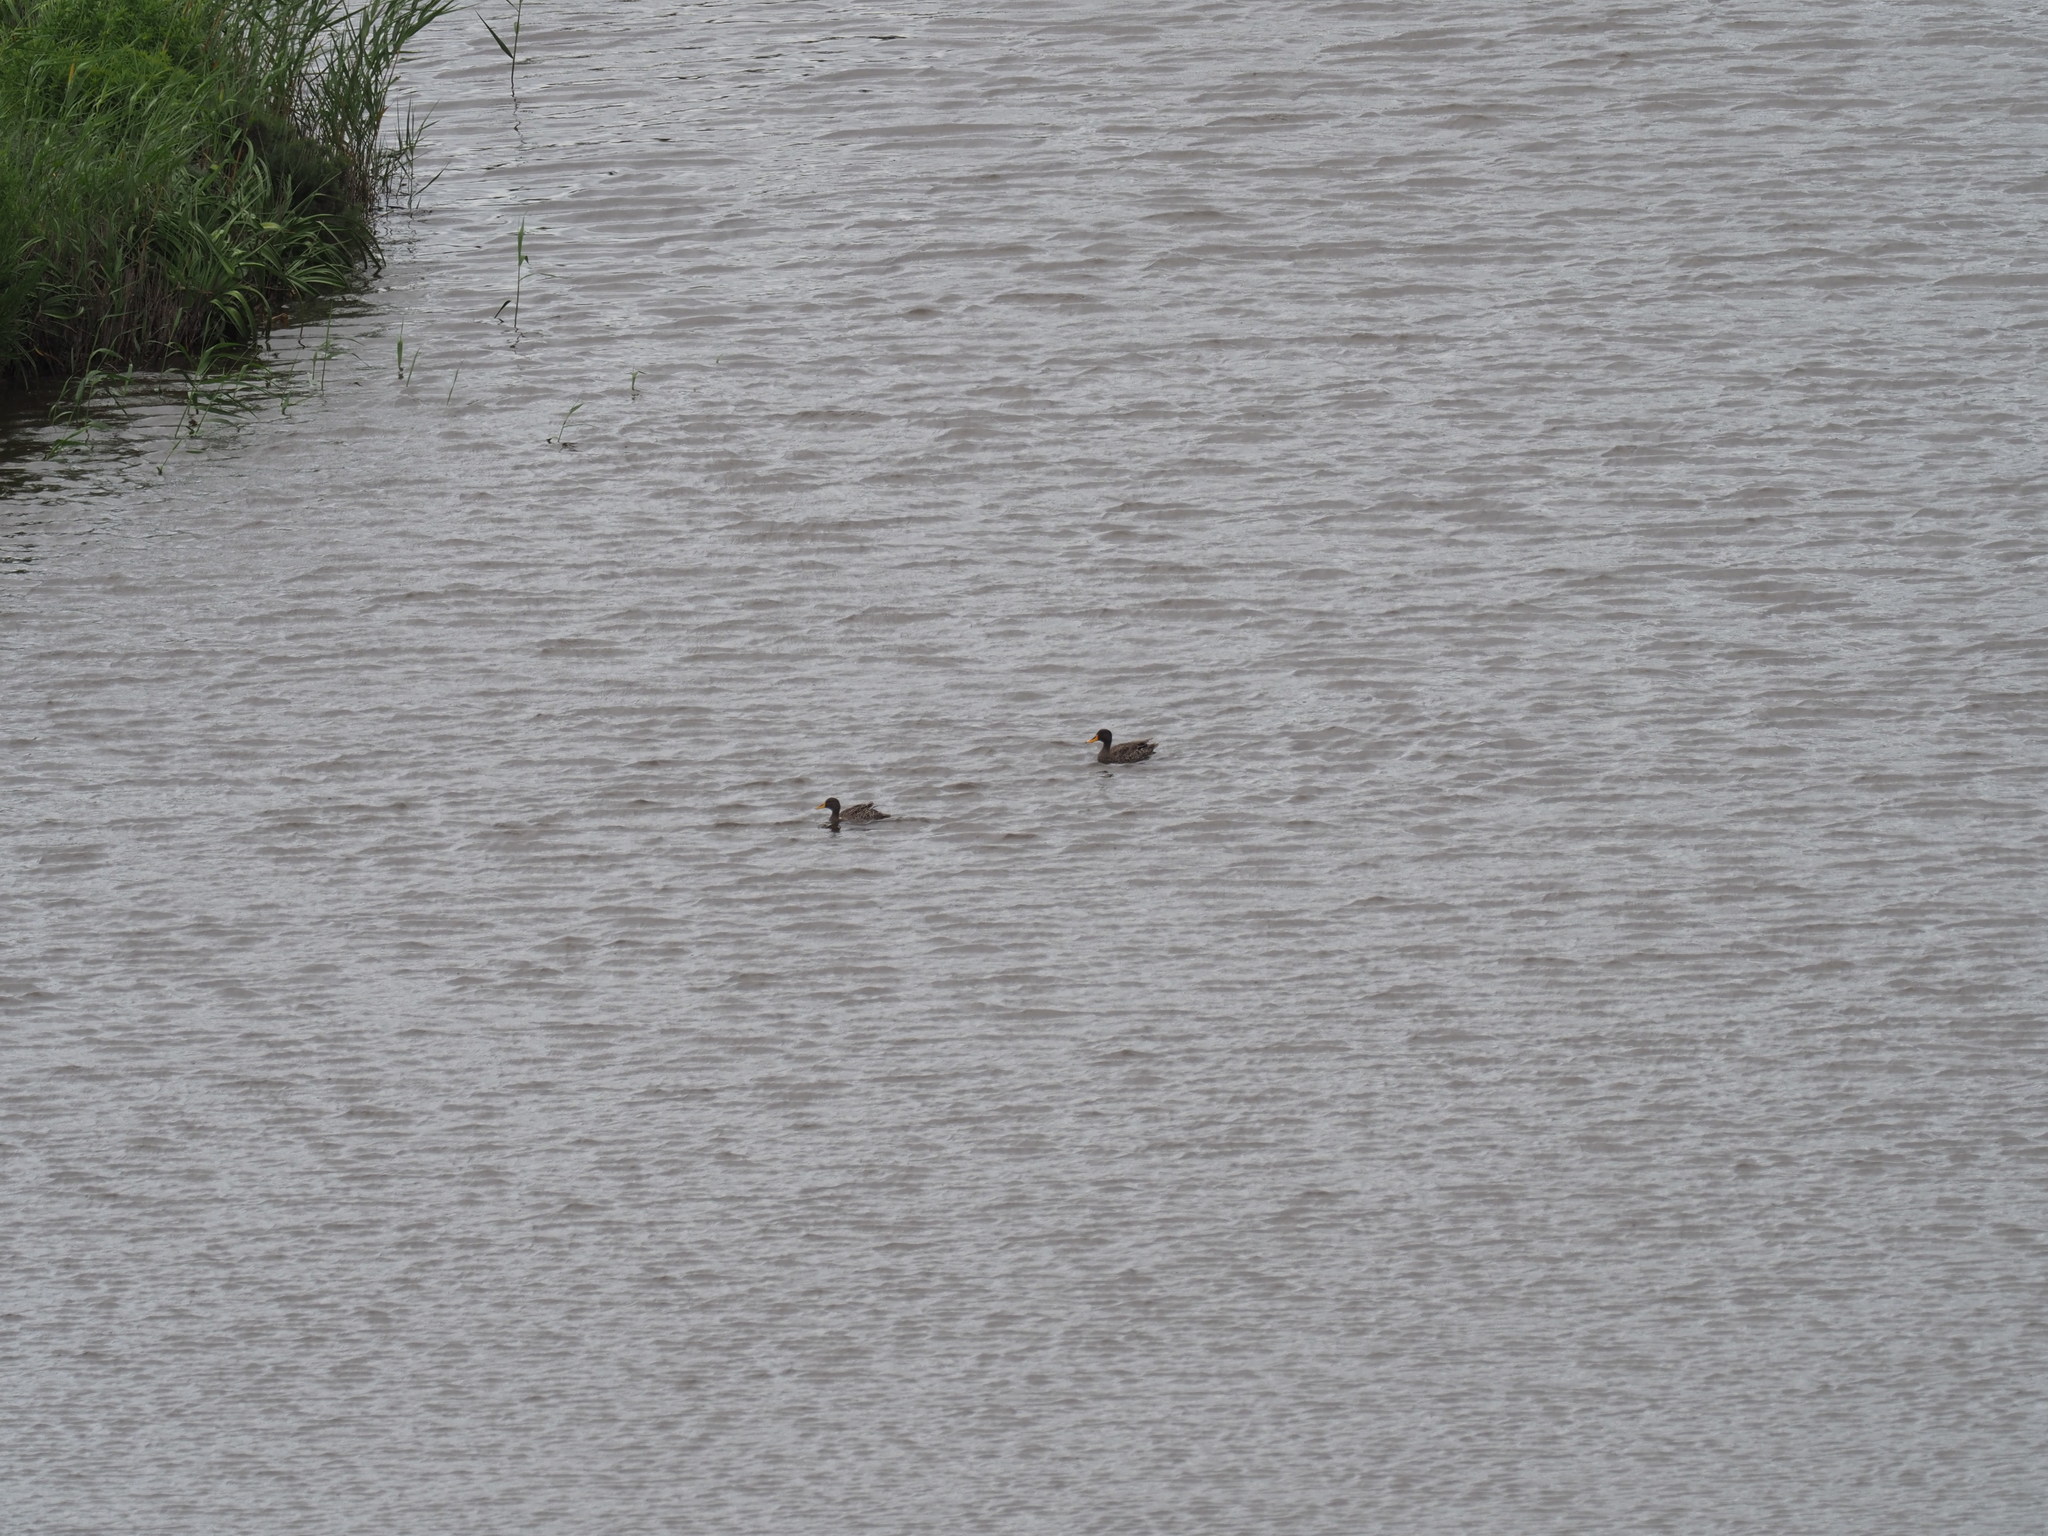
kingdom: Animalia
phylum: Chordata
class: Aves
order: Anseriformes
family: Anatidae
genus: Anas
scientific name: Anas undulata
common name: Yellow-billed duck
